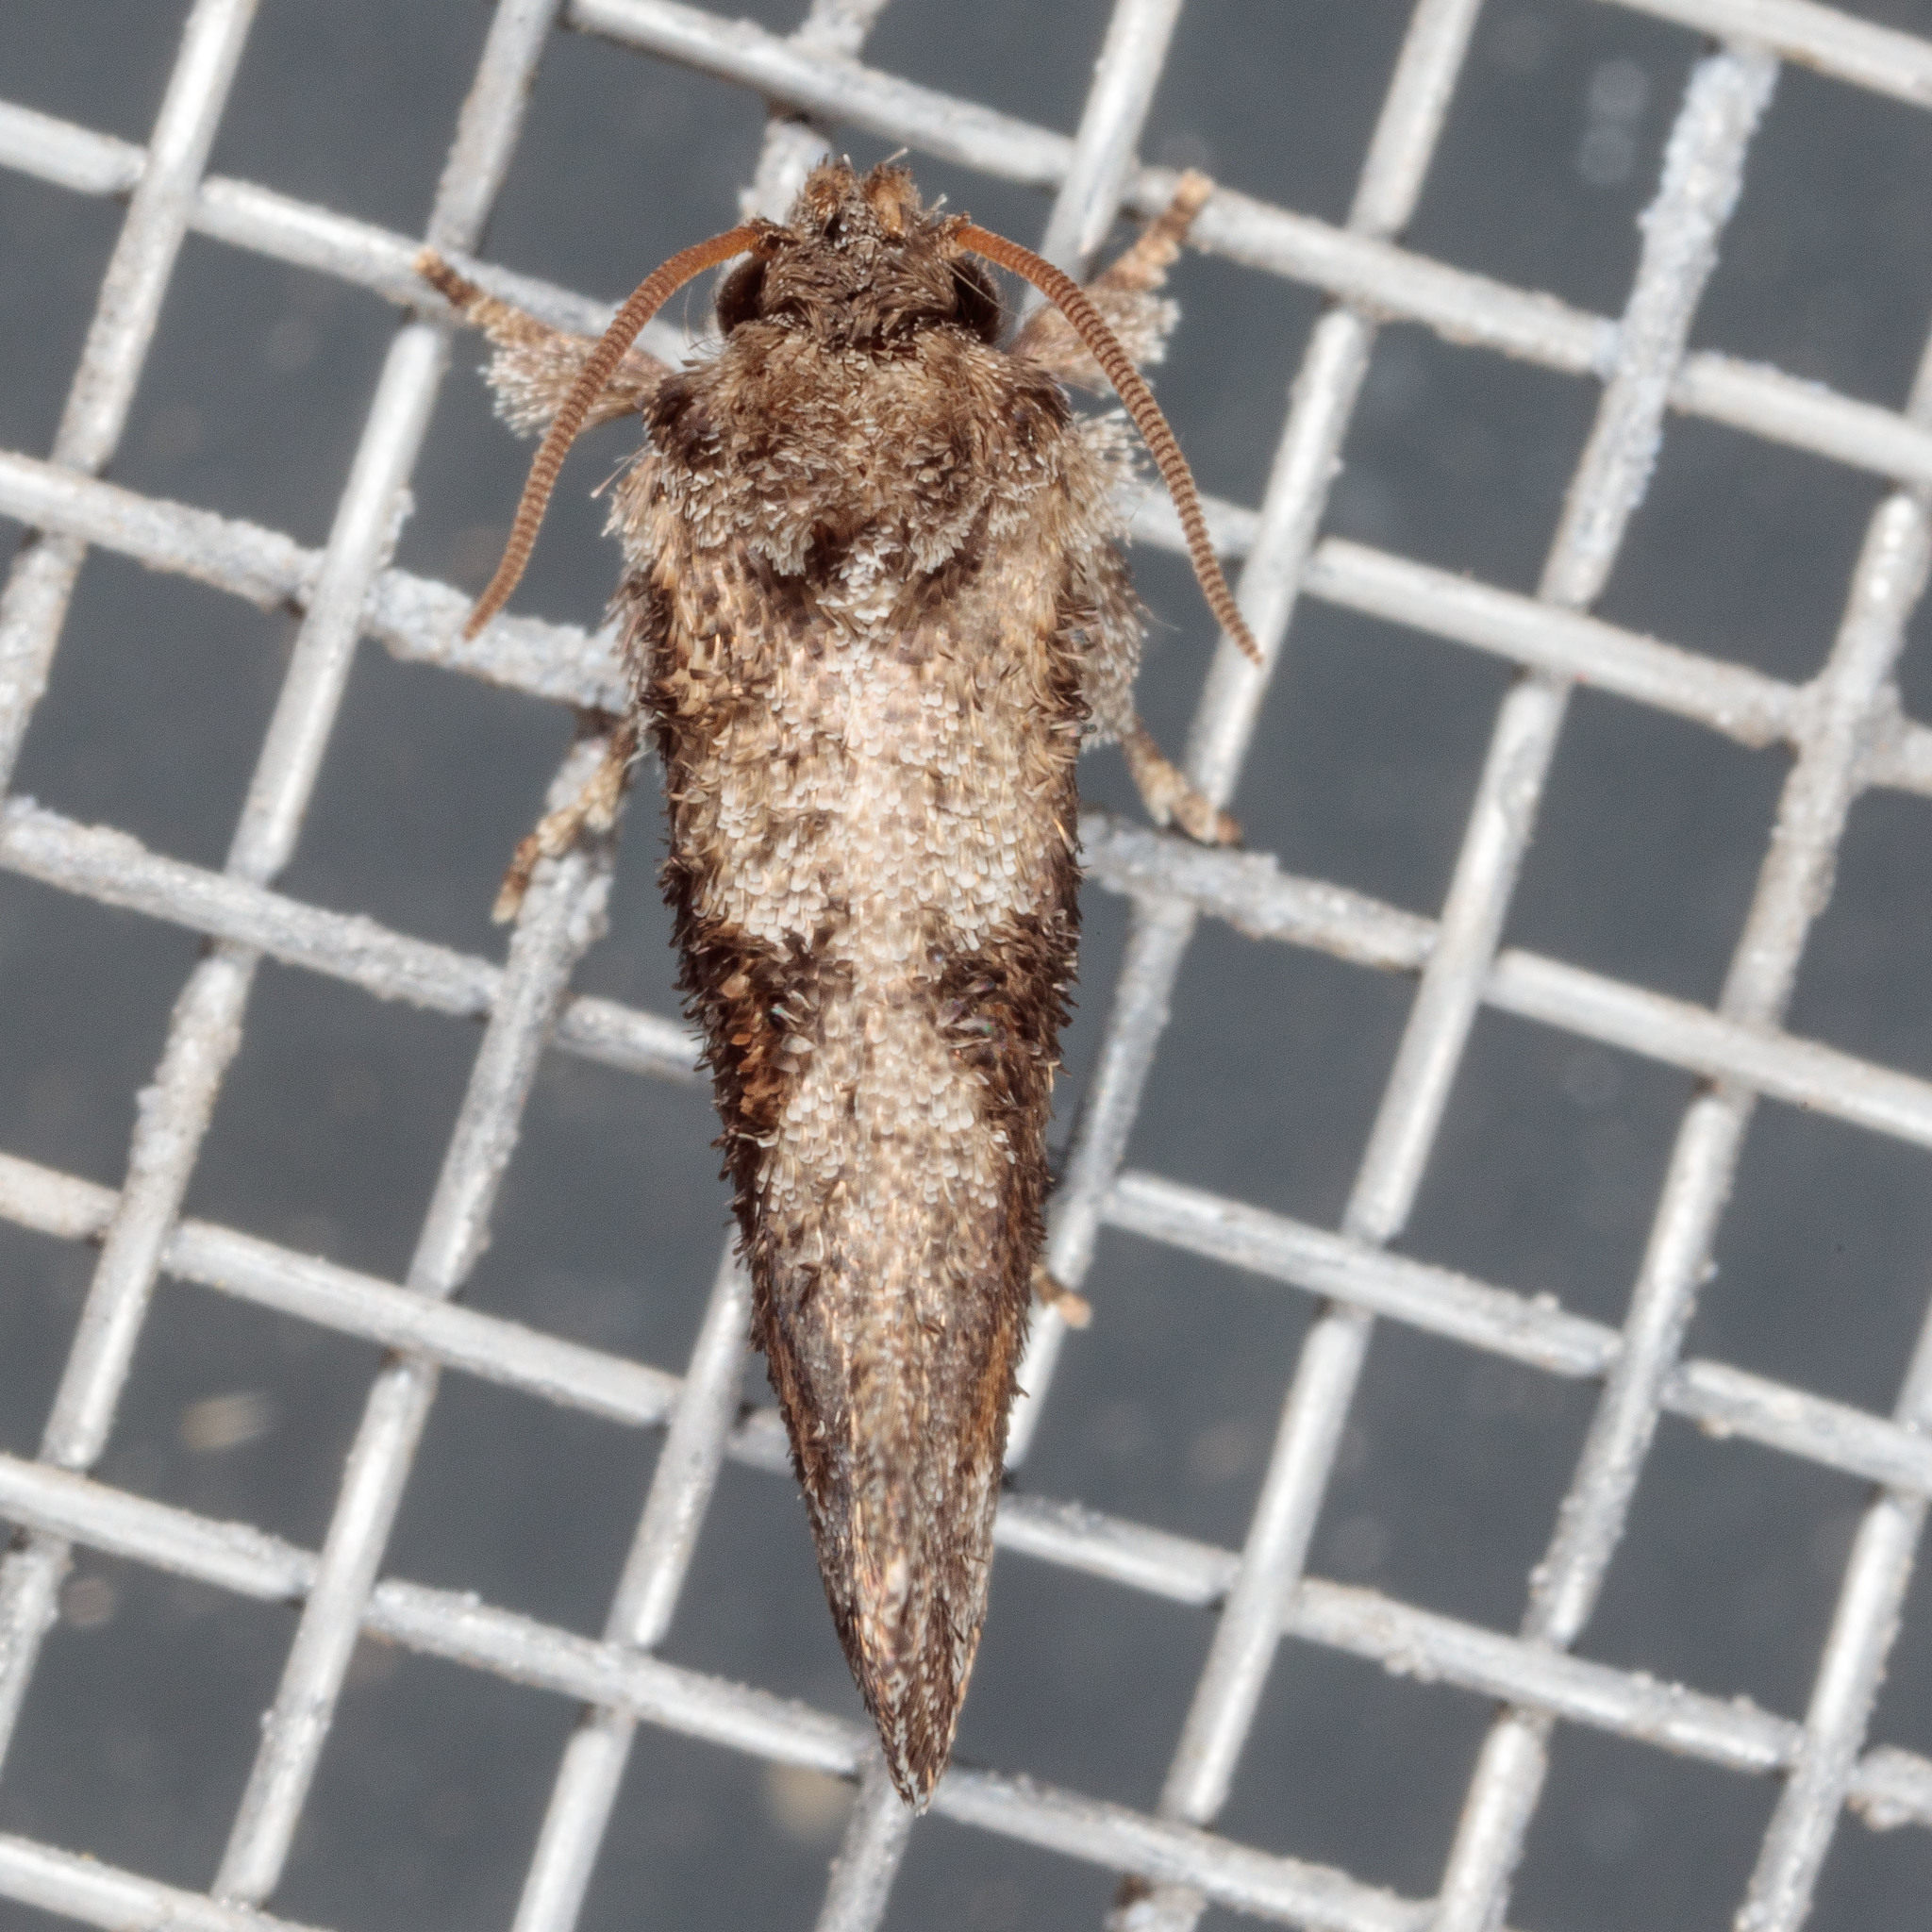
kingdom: Animalia
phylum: Arthropoda
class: Insecta
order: Lepidoptera
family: Tineidae
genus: Acrolophus
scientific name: Acrolophus piger
